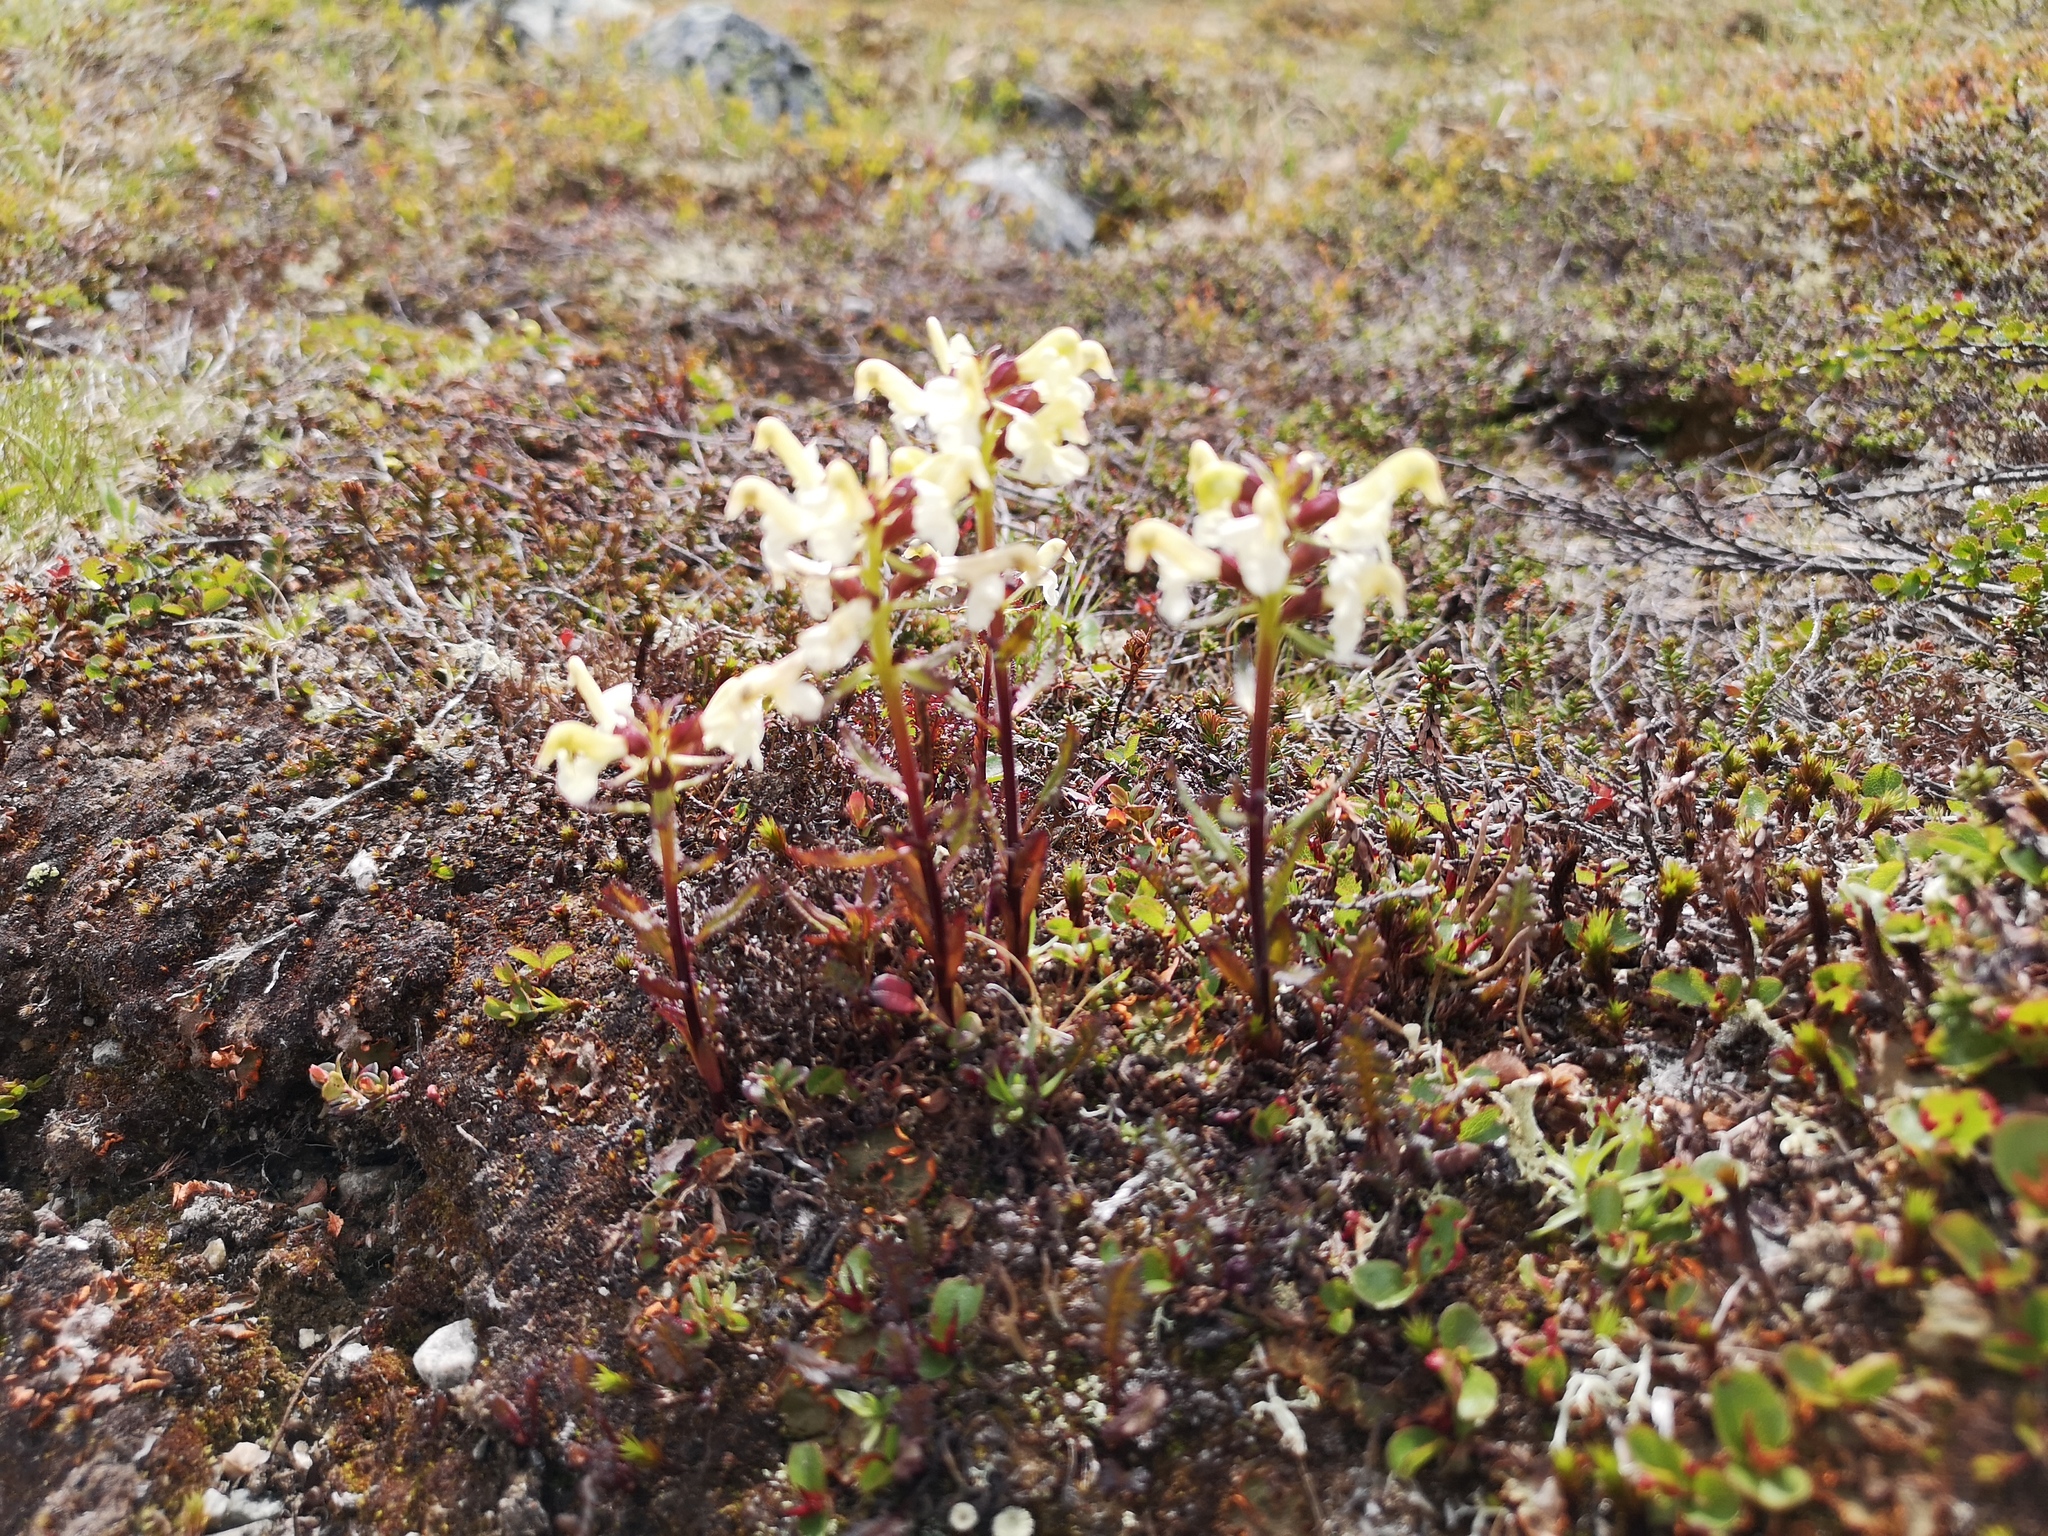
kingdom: Plantae
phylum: Tracheophyta
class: Magnoliopsida
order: Lamiales
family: Orobanchaceae
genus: Pedicularis
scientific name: Pedicularis lapponica
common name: Lapland lousewort
